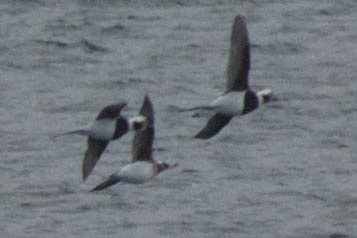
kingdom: Animalia
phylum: Chordata
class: Aves
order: Anseriformes
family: Anatidae
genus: Clangula
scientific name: Clangula hyemalis
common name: Long-tailed duck
